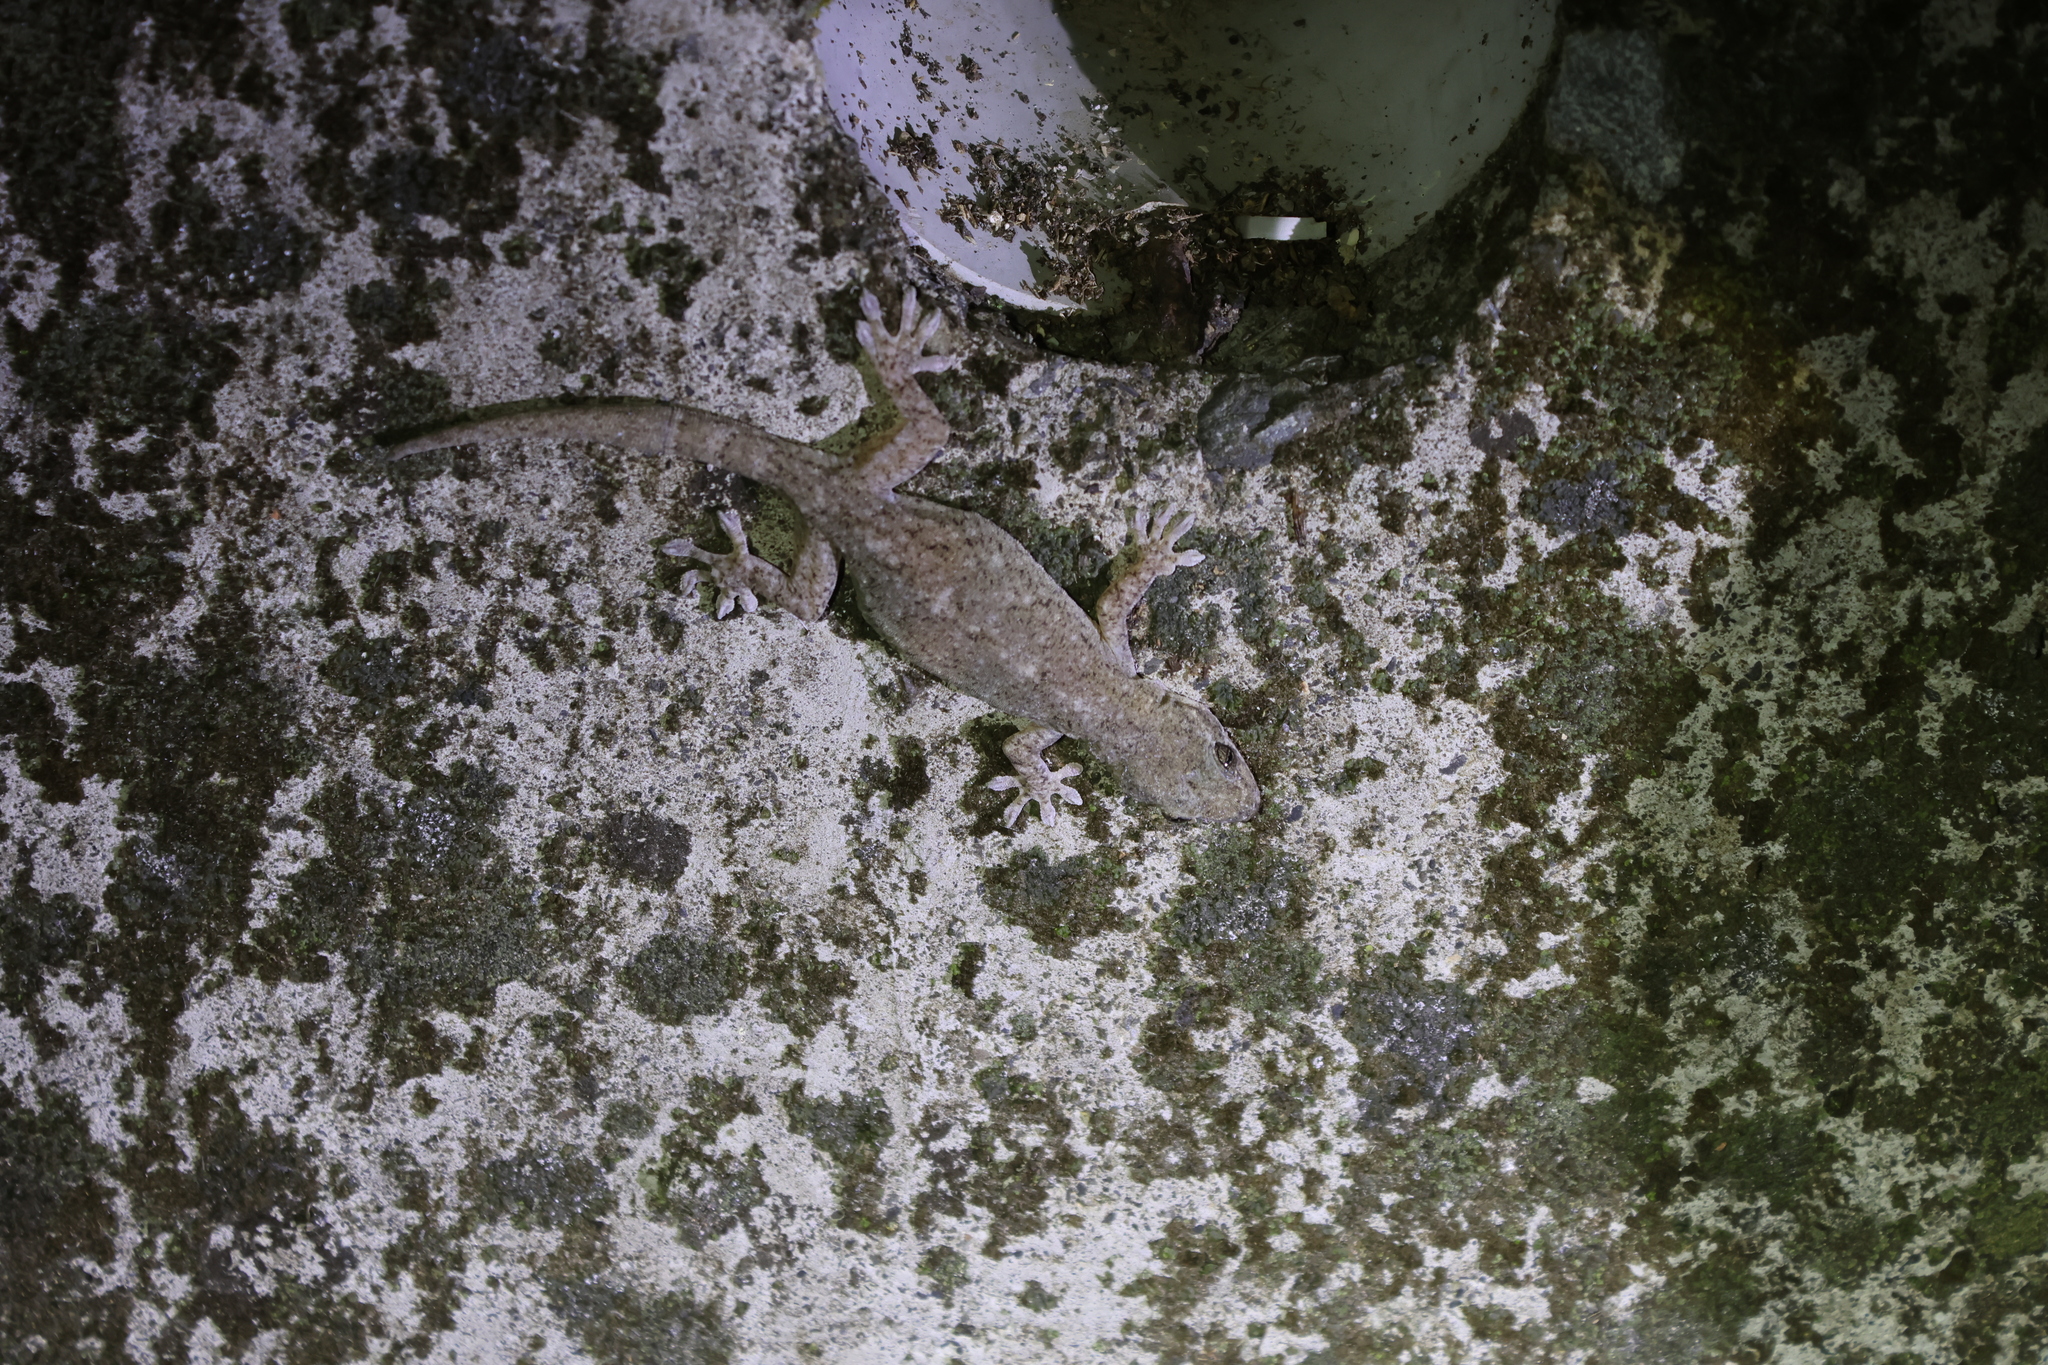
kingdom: Animalia
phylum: Chordata
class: Squamata
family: Gekkonidae
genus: Gekko
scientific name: Gekko hokouensis
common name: Kwangsi gecko
